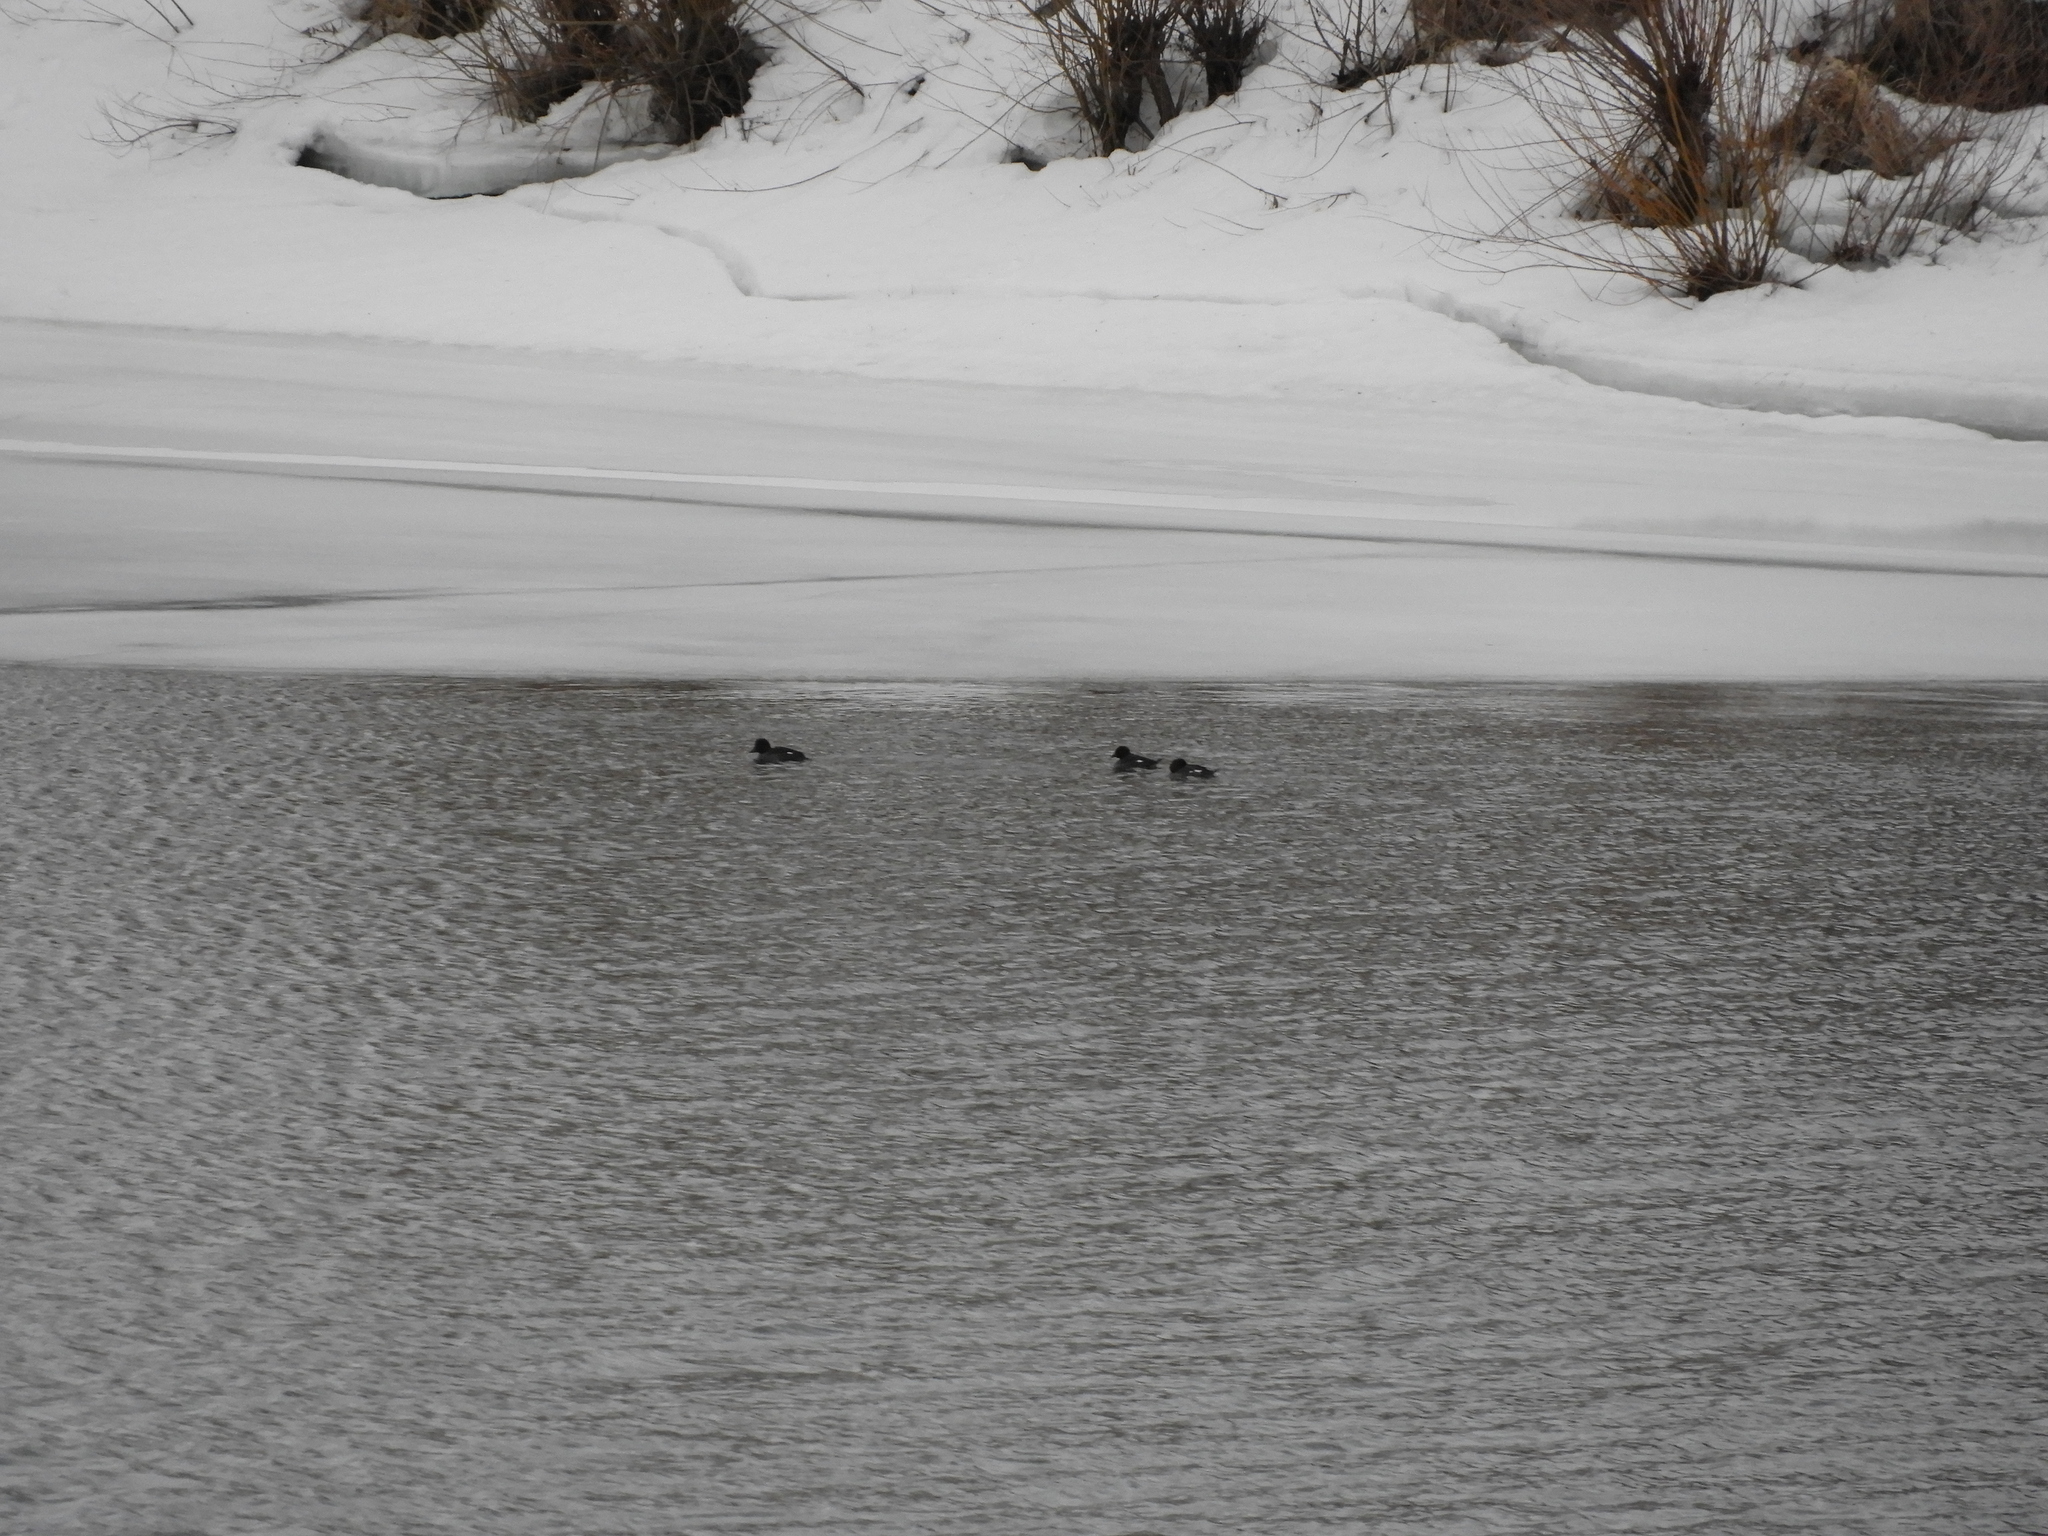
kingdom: Animalia
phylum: Chordata
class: Aves
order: Anseriformes
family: Anatidae
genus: Bucephala
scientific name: Bucephala clangula
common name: Common goldeneye
